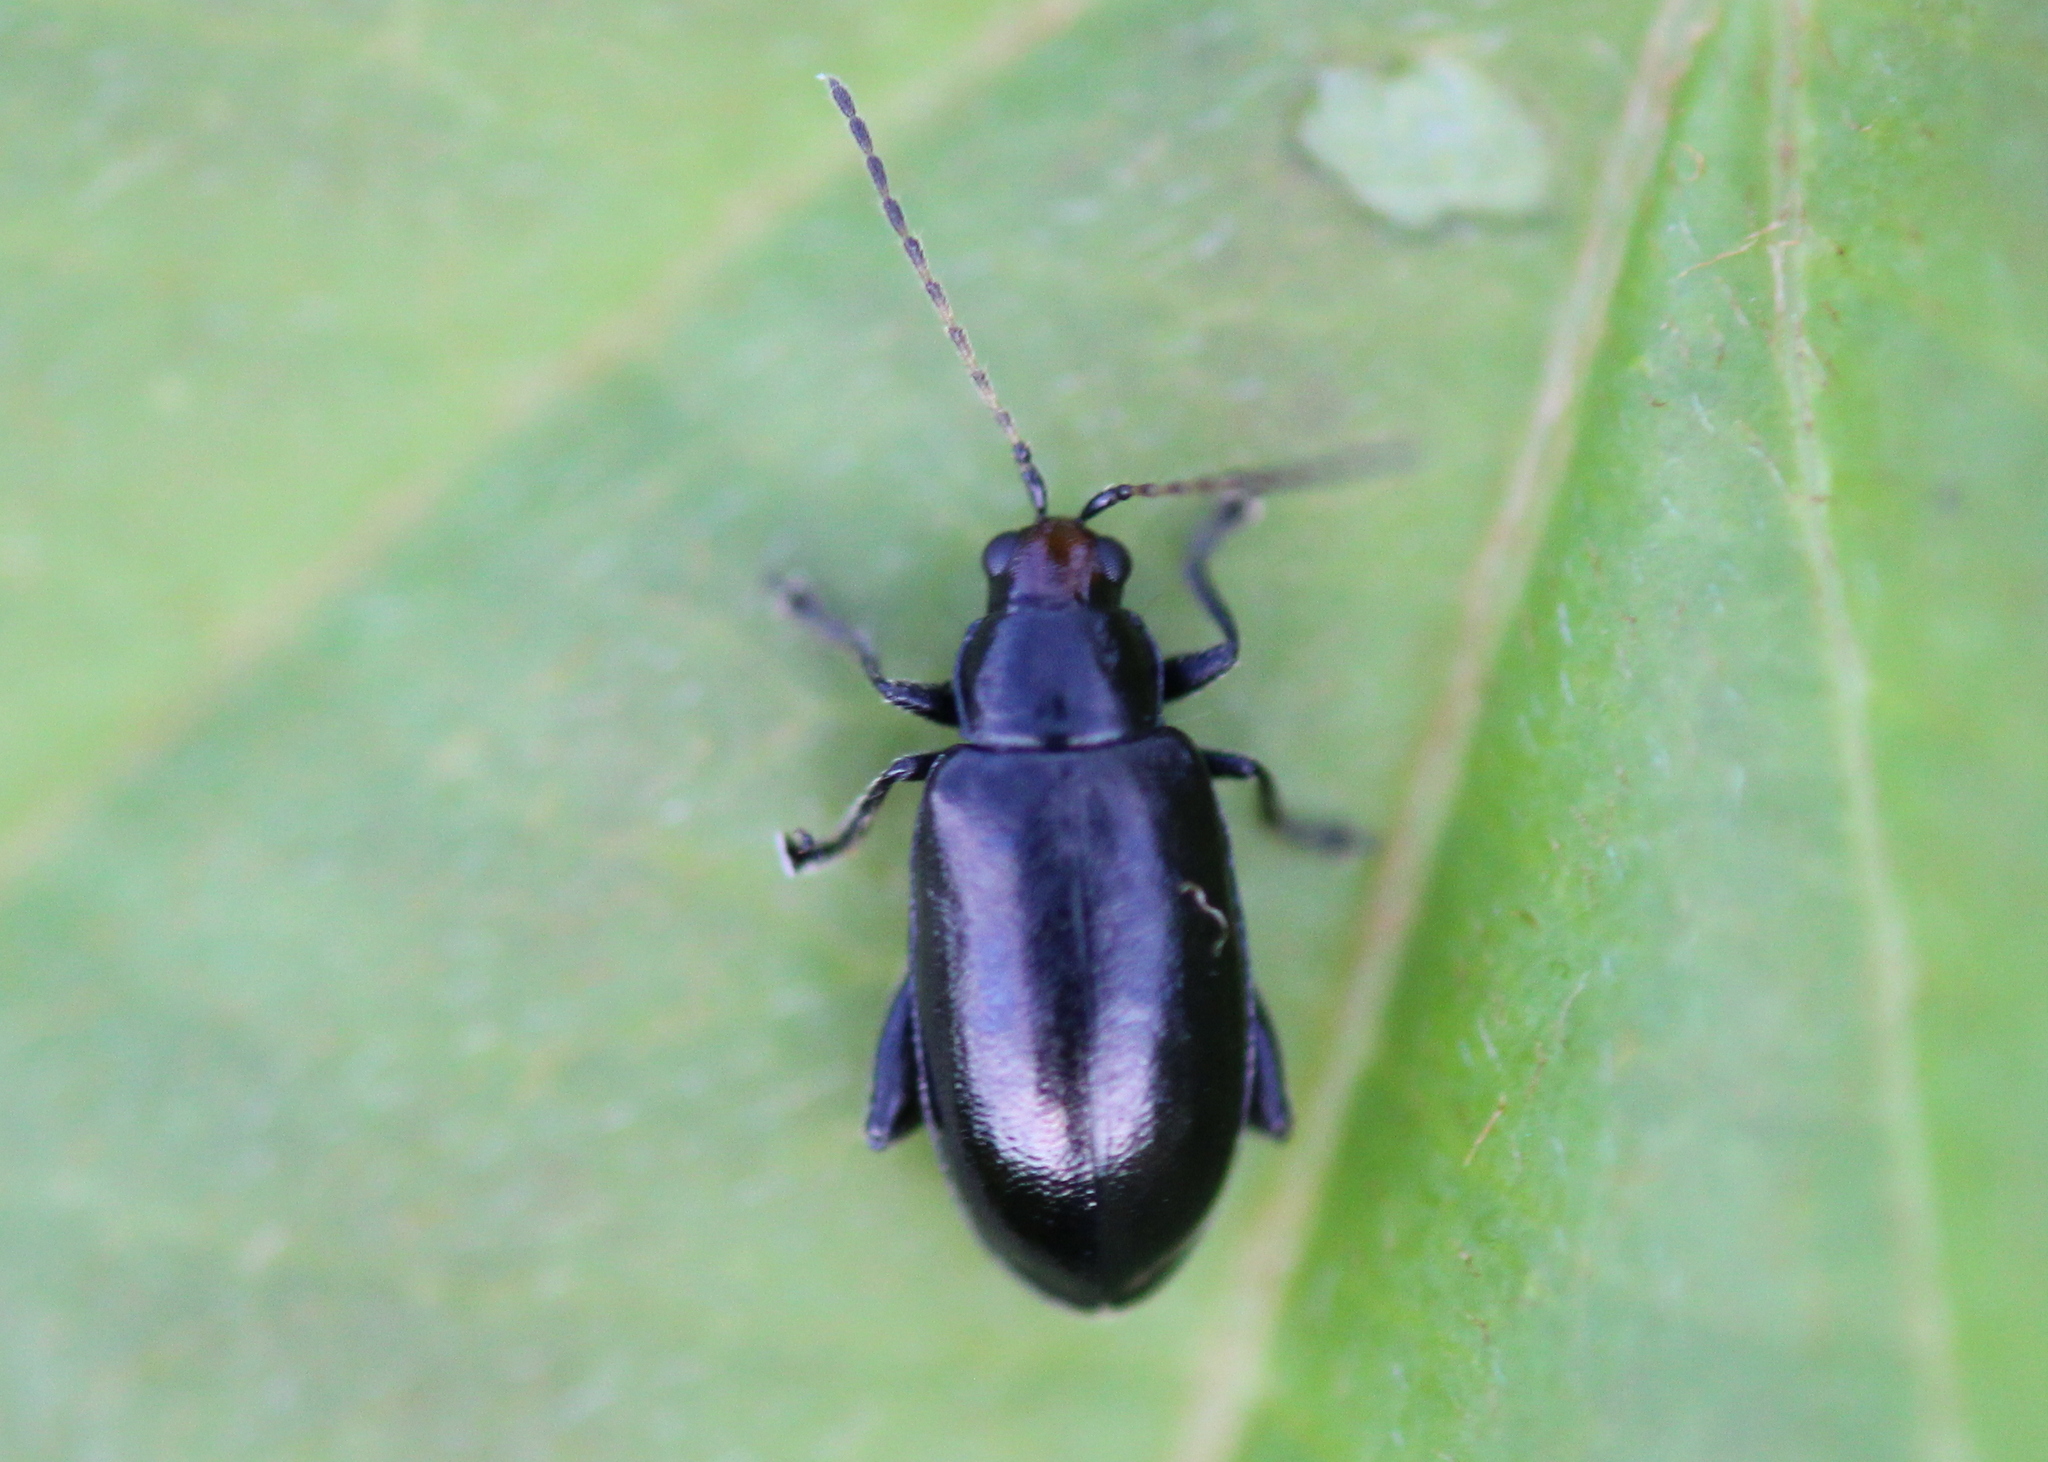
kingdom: Animalia
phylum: Arthropoda
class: Insecta
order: Coleoptera
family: Chrysomelidae
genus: Systena
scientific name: Systena frontalis
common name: Red-headed flea beetle
